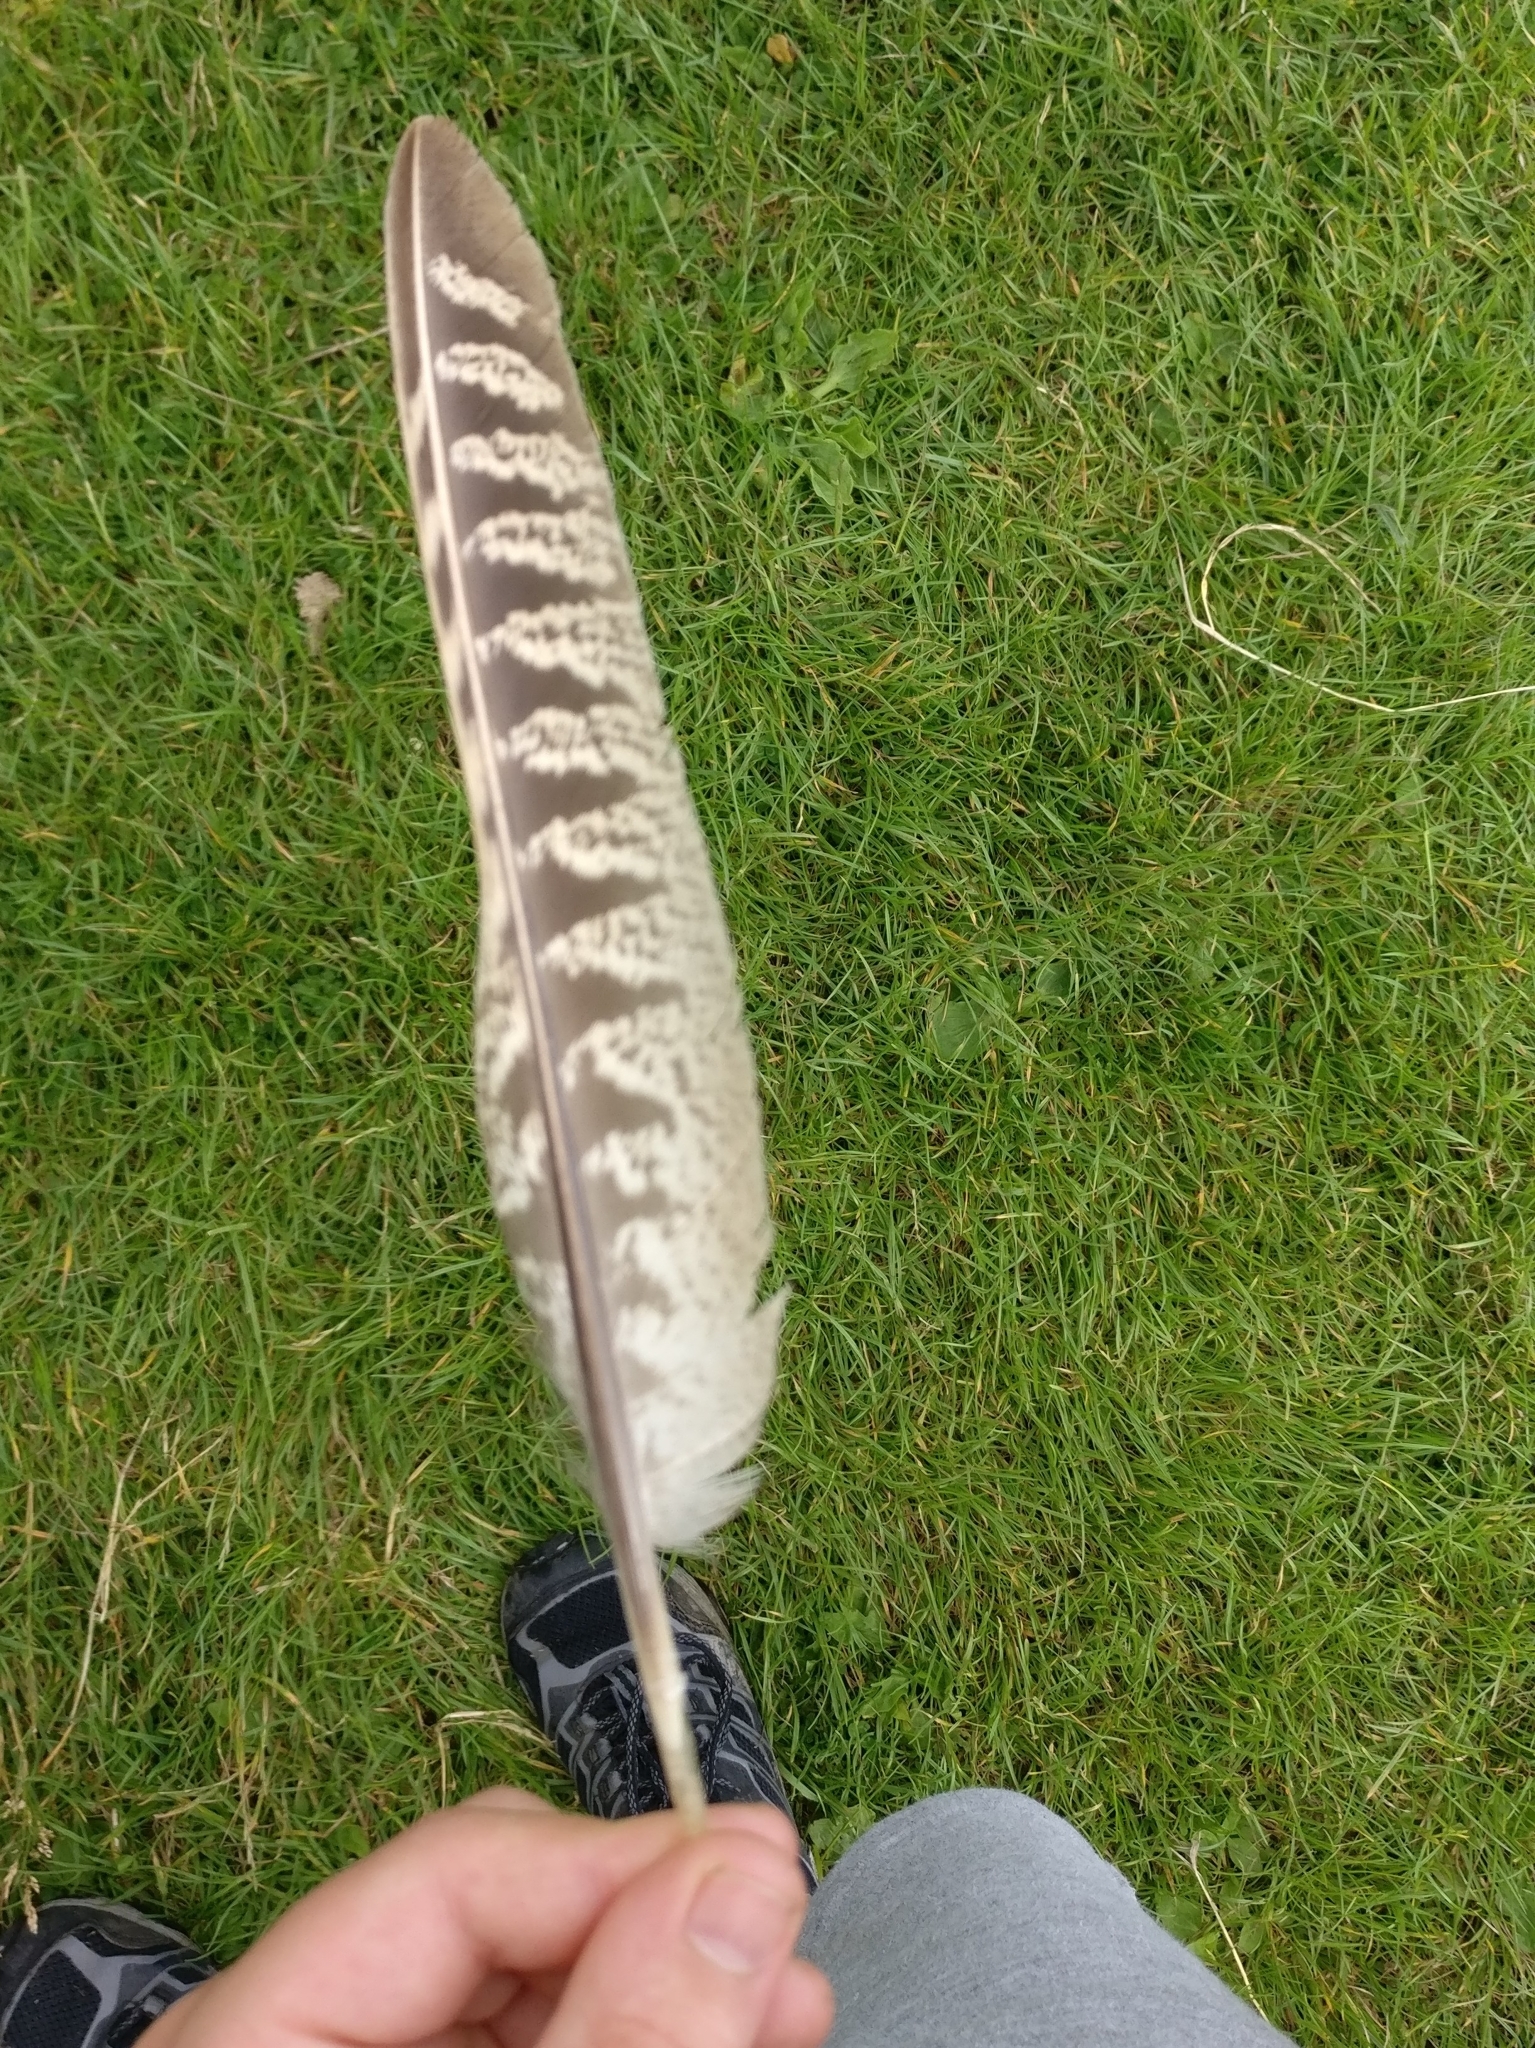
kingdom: Animalia
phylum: Chordata
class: Aves
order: Galliformes
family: Phasianidae
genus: Phasianus
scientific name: Phasianus colchicus
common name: Common pheasant
